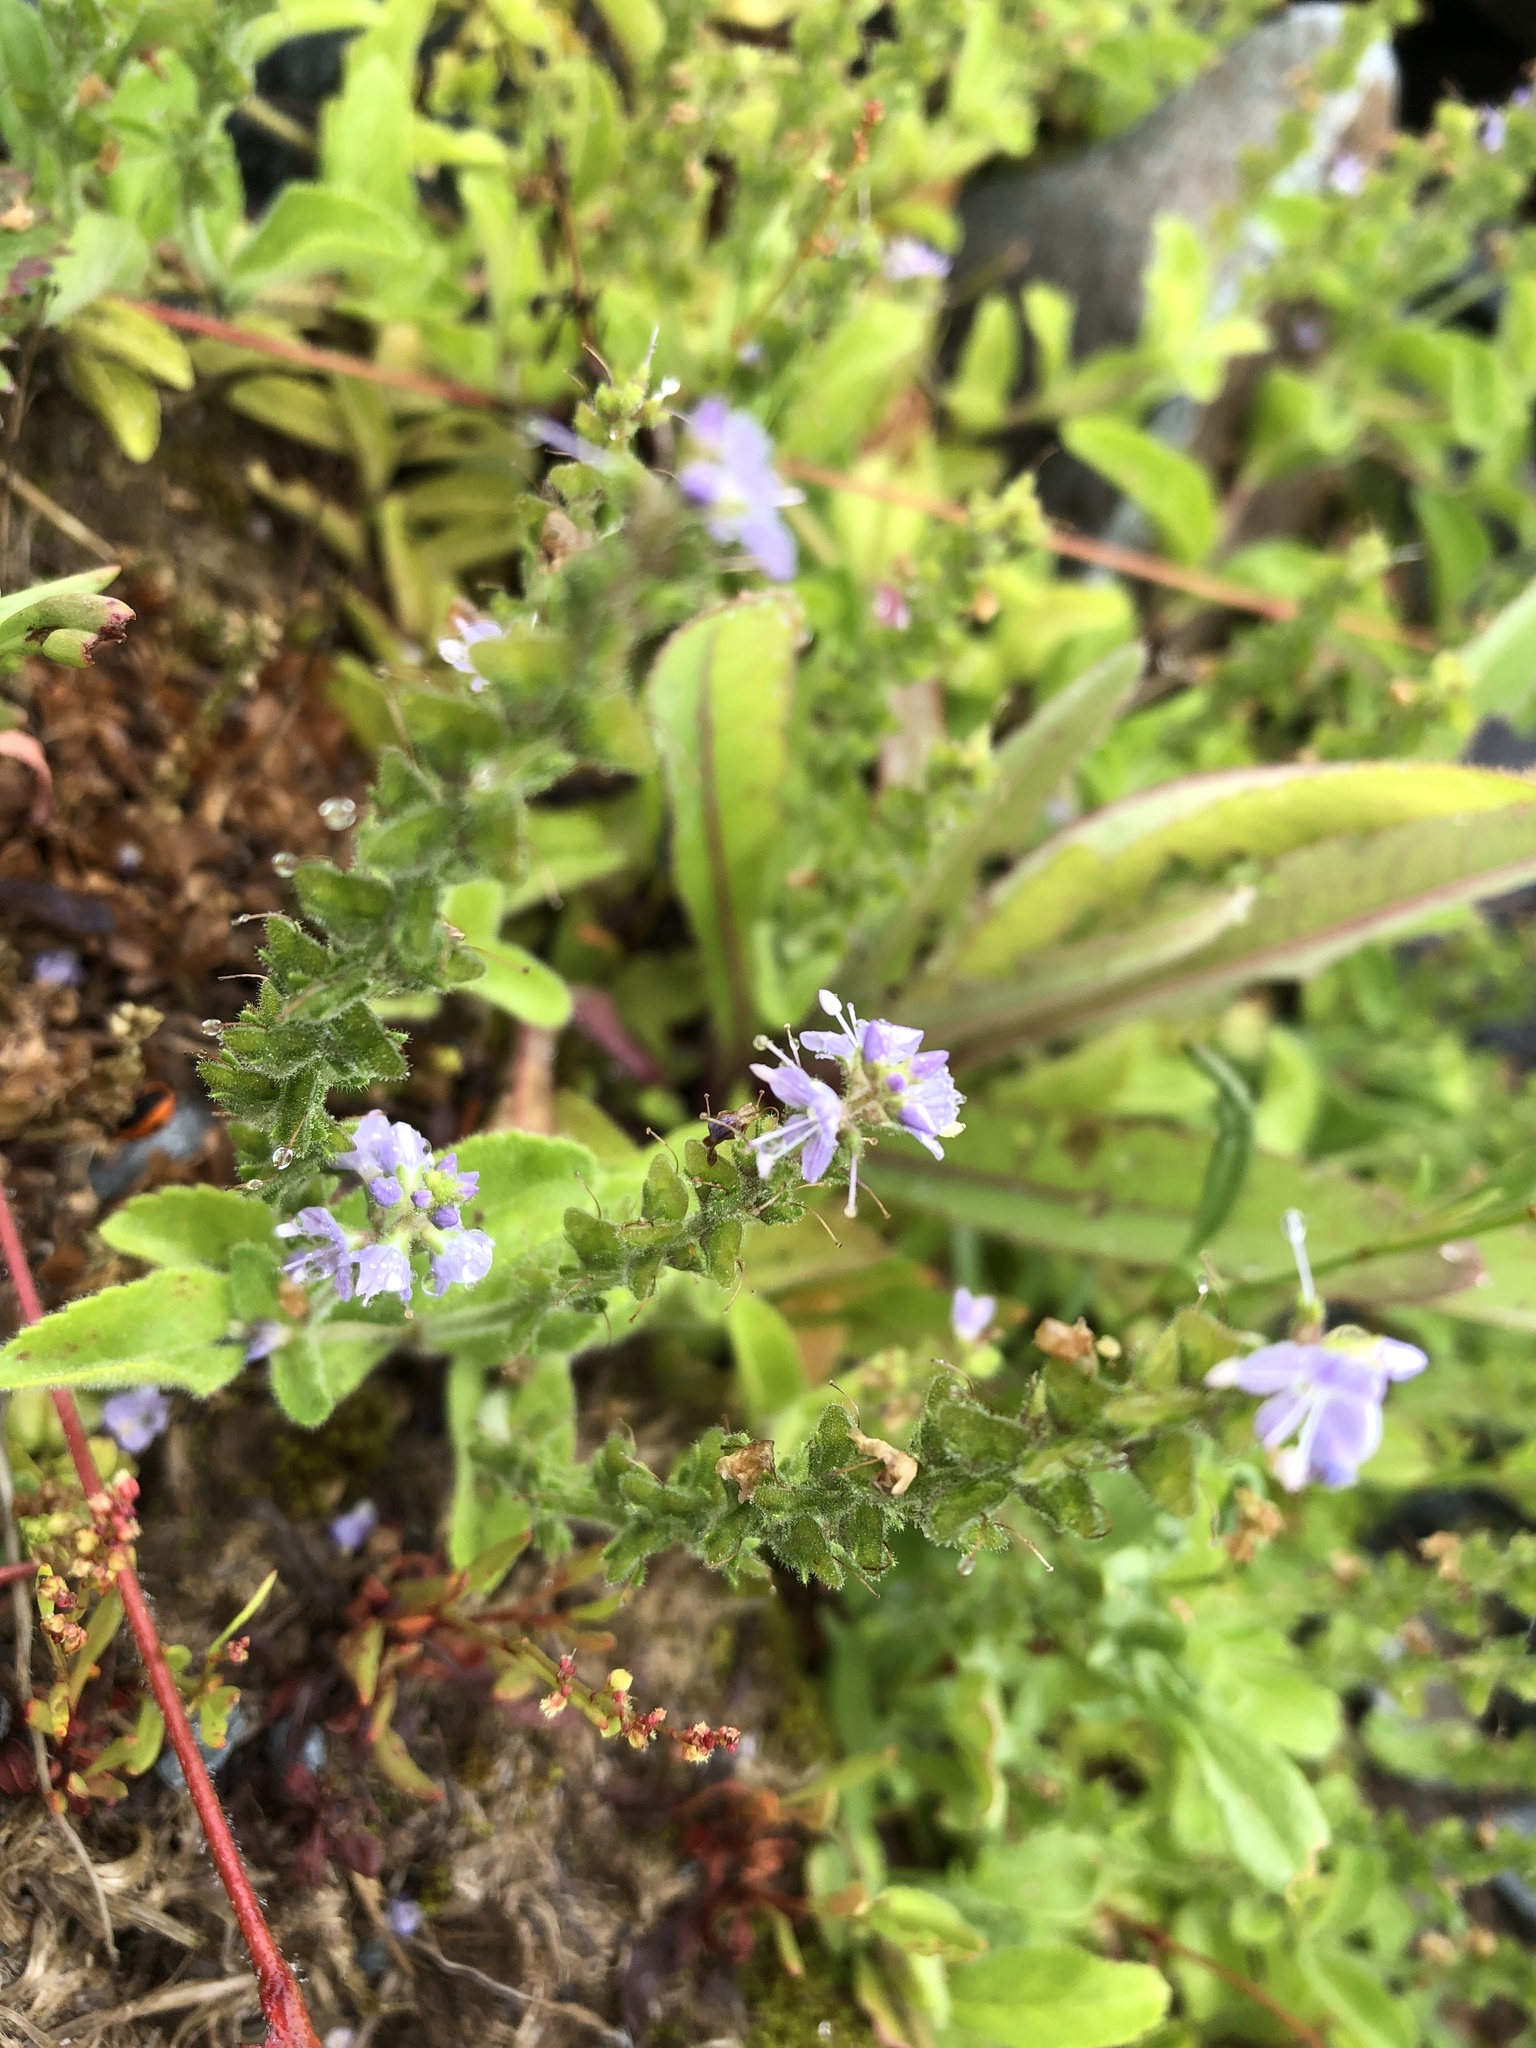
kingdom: Plantae
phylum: Tracheophyta
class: Magnoliopsida
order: Lamiales
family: Plantaginaceae
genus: Veronica
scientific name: Veronica officinalis
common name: Common speedwell
